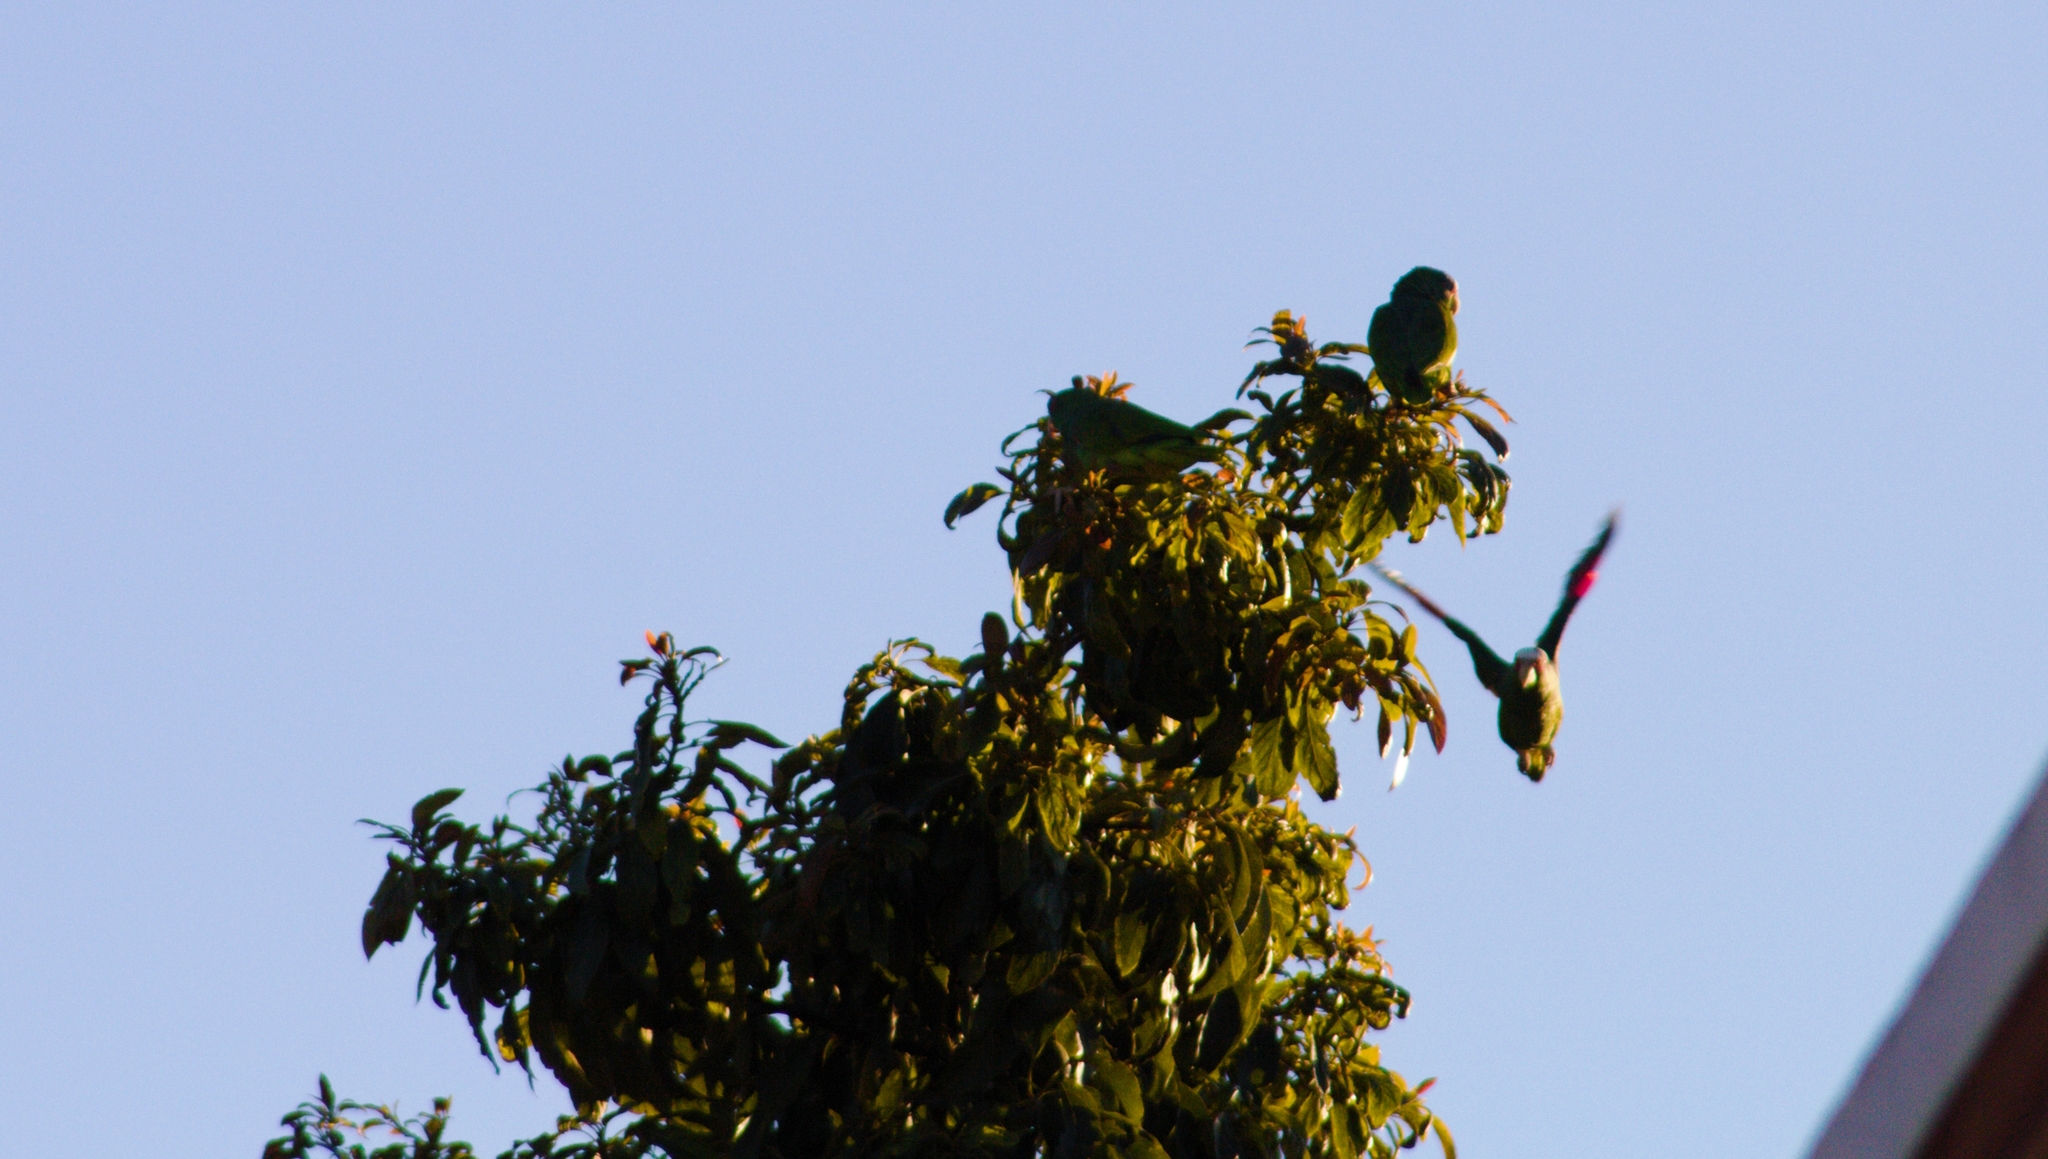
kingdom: Animalia
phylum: Chordata
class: Aves
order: Psittaciformes
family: Psittacidae
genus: Amazona
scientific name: Amazona albifrons
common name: White-fronted amazon
